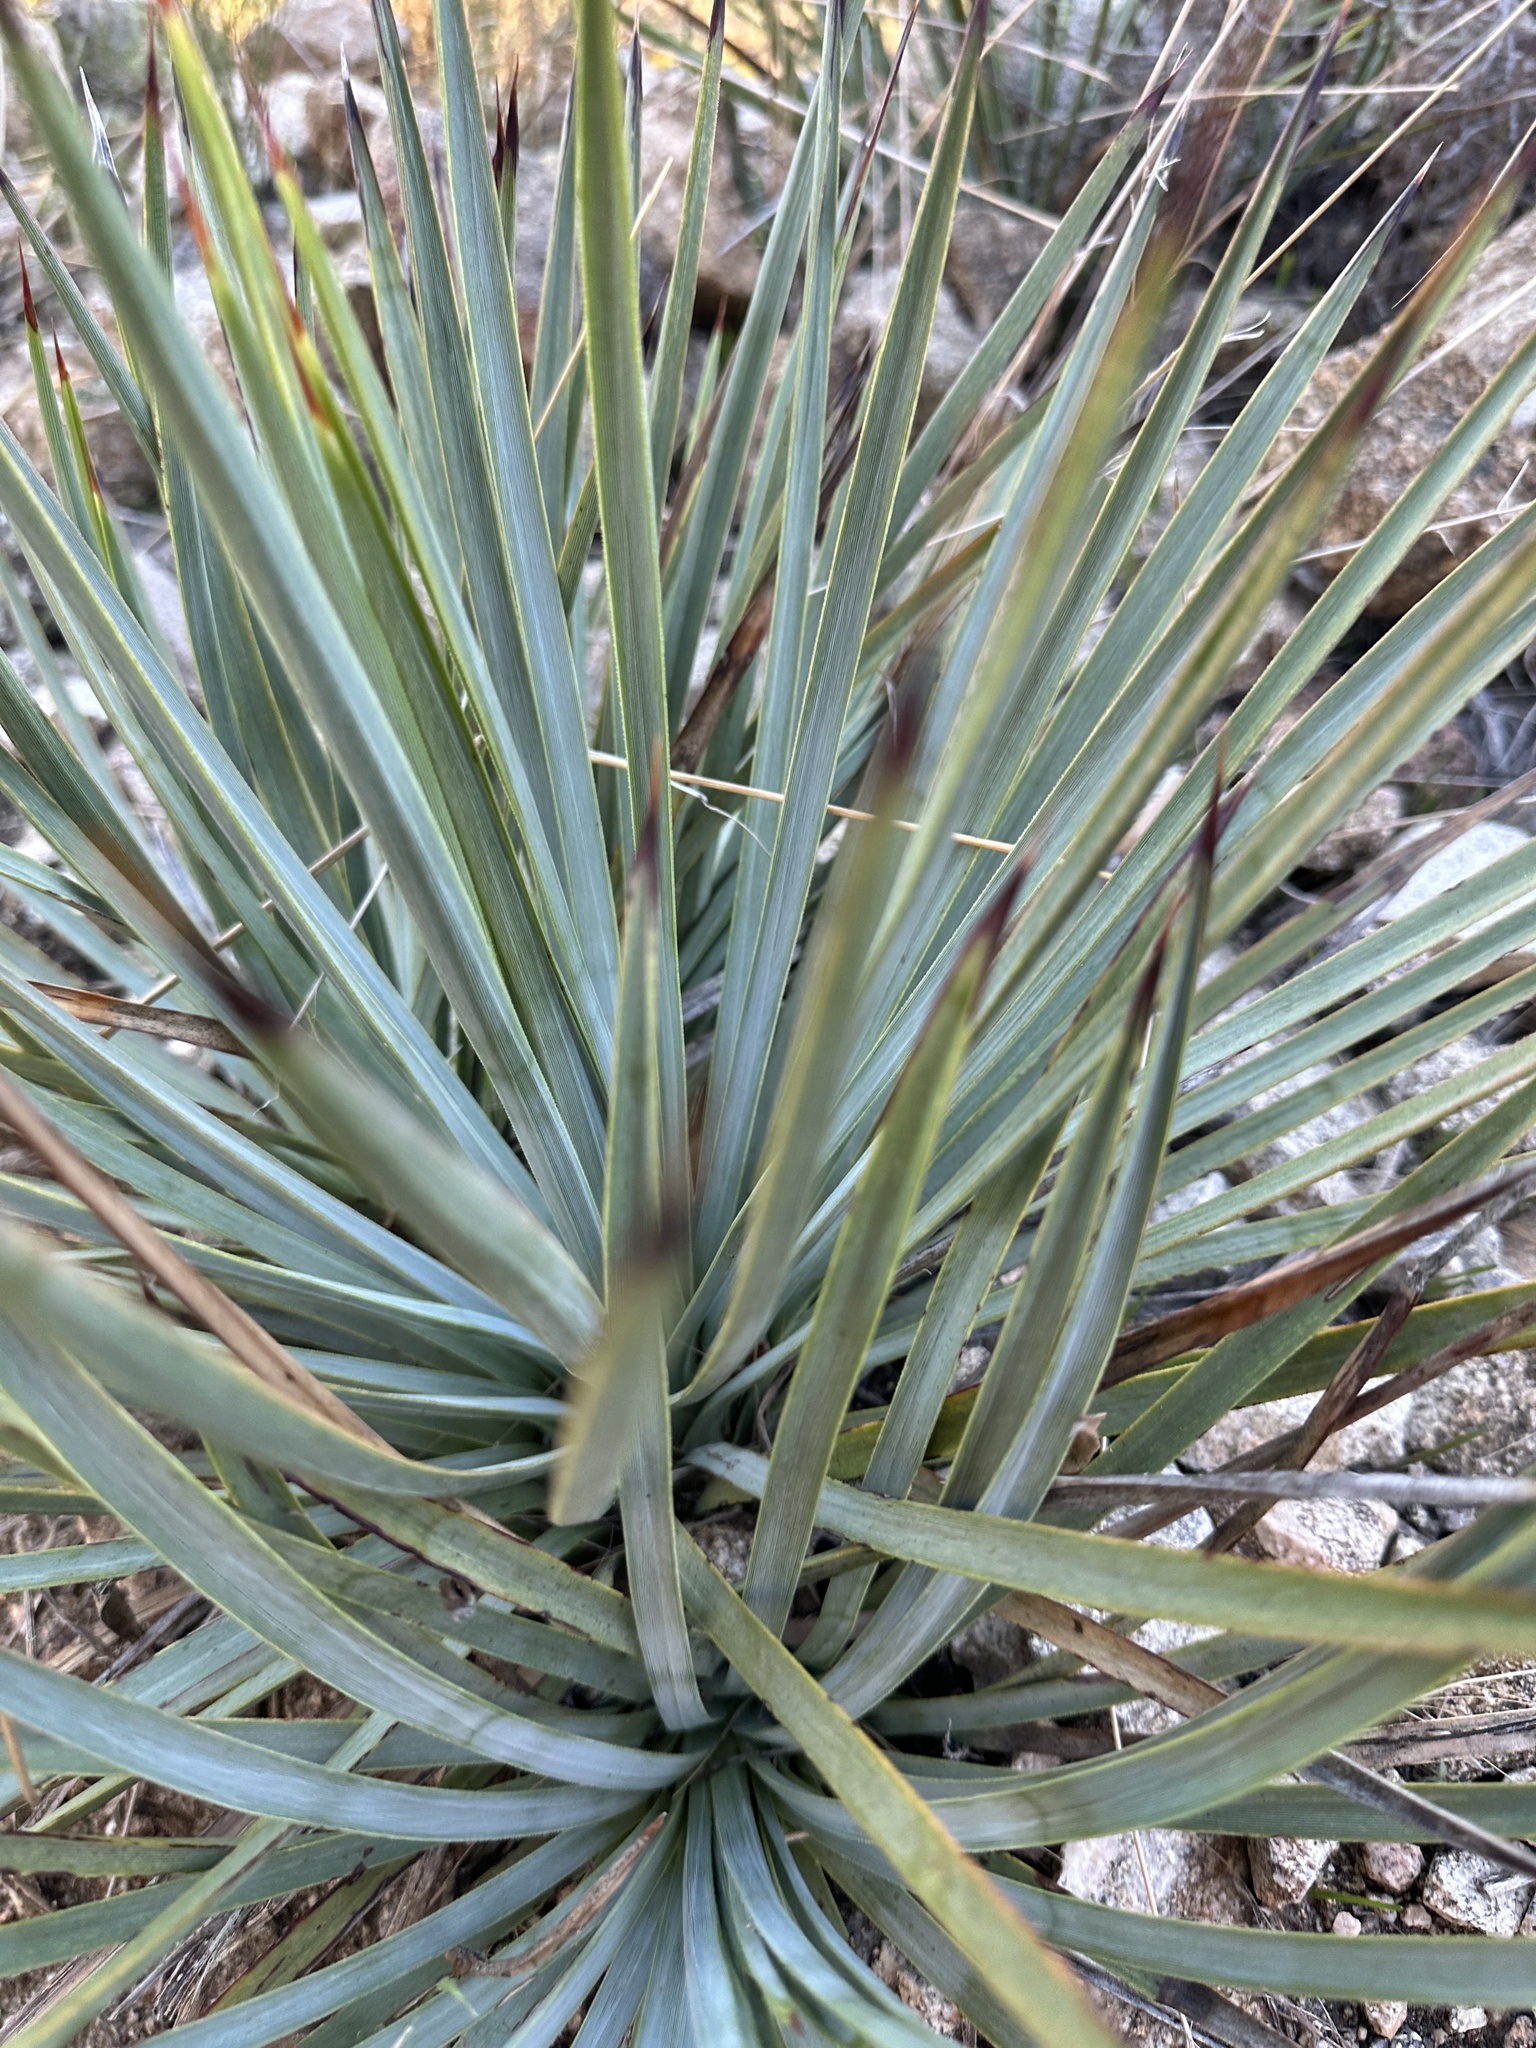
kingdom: Plantae
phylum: Tracheophyta
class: Liliopsida
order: Asparagales
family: Asparagaceae
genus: Hesperoyucca
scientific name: Hesperoyucca whipplei
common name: Our lord's-candle
